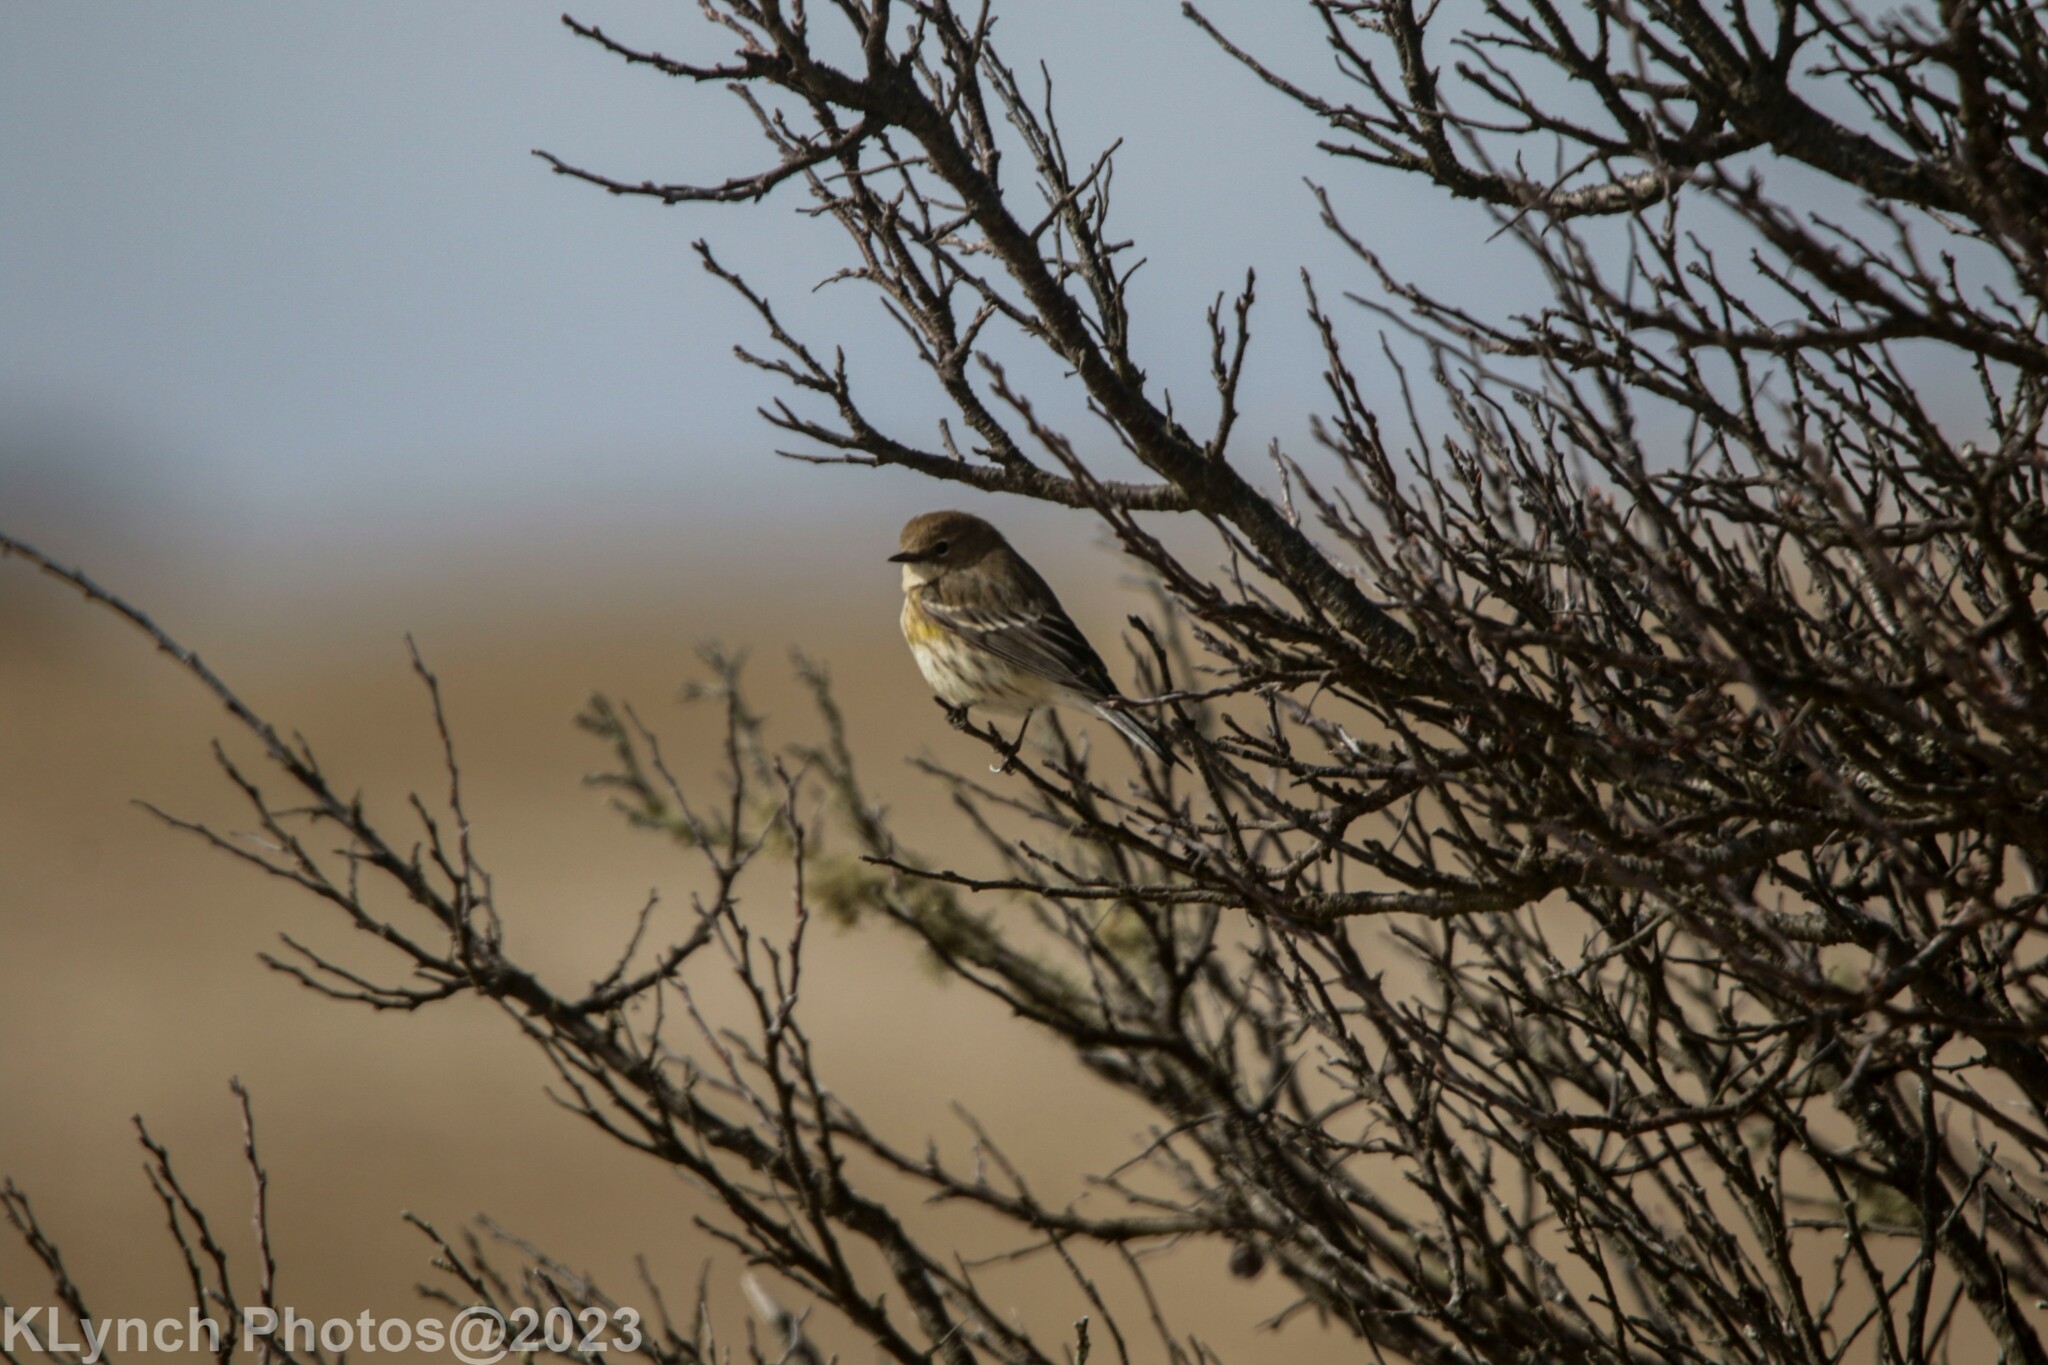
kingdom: Animalia
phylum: Chordata
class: Aves
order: Passeriformes
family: Parulidae
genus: Setophaga
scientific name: Setophaga coronata
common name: Myrtle warbler
